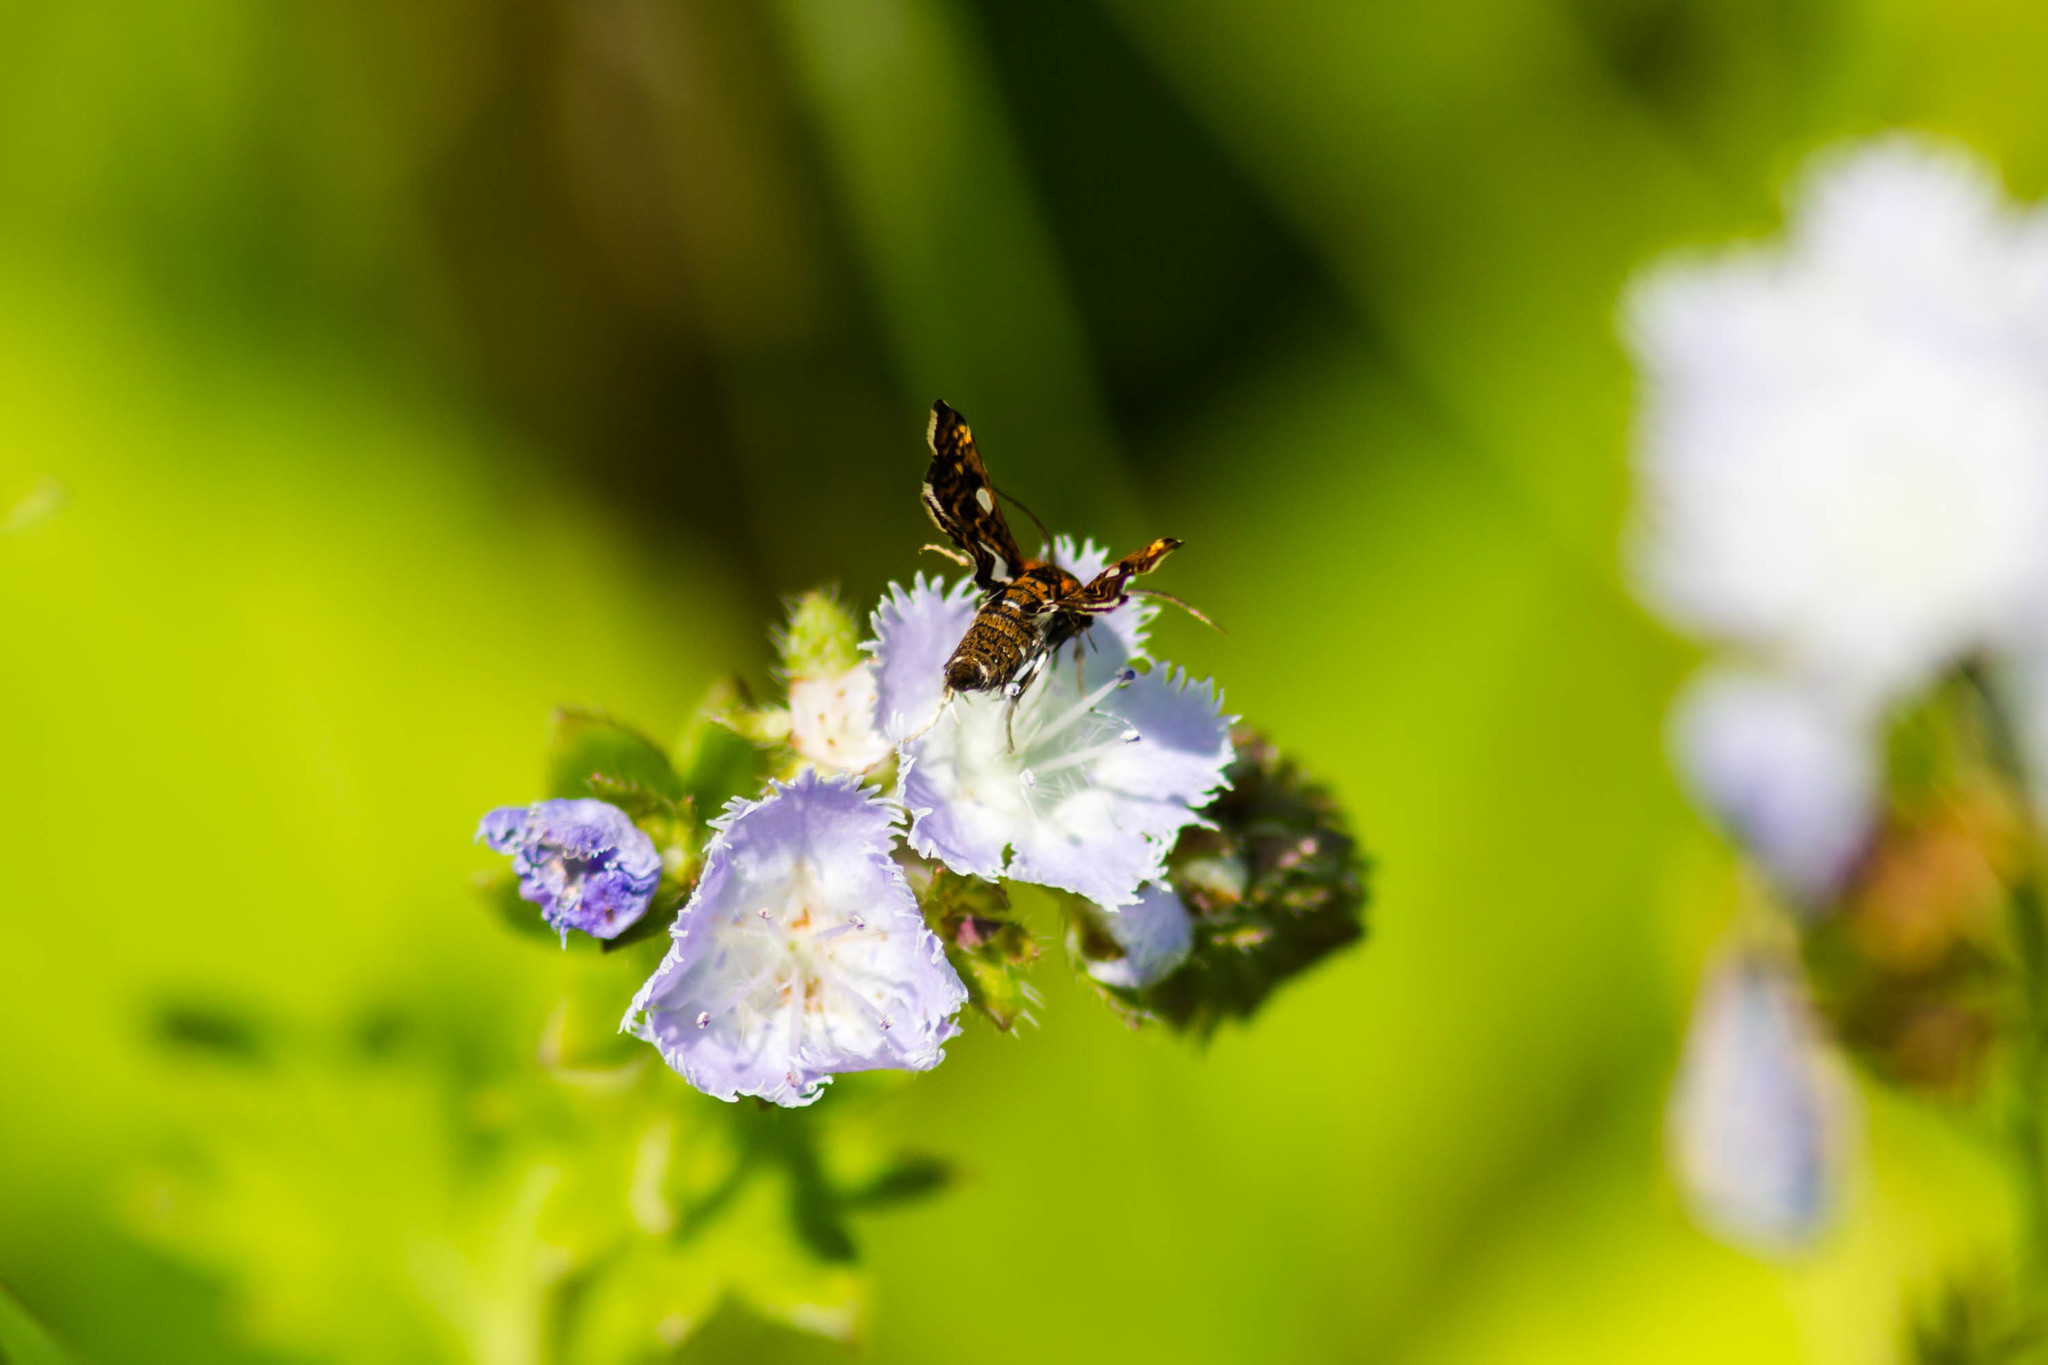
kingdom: Animalia
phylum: Arthropoda
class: Insecta
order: Lepidoptera
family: Thyrididae
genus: Thyris
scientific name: Thyris maculata
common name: Spotted thyris moth
